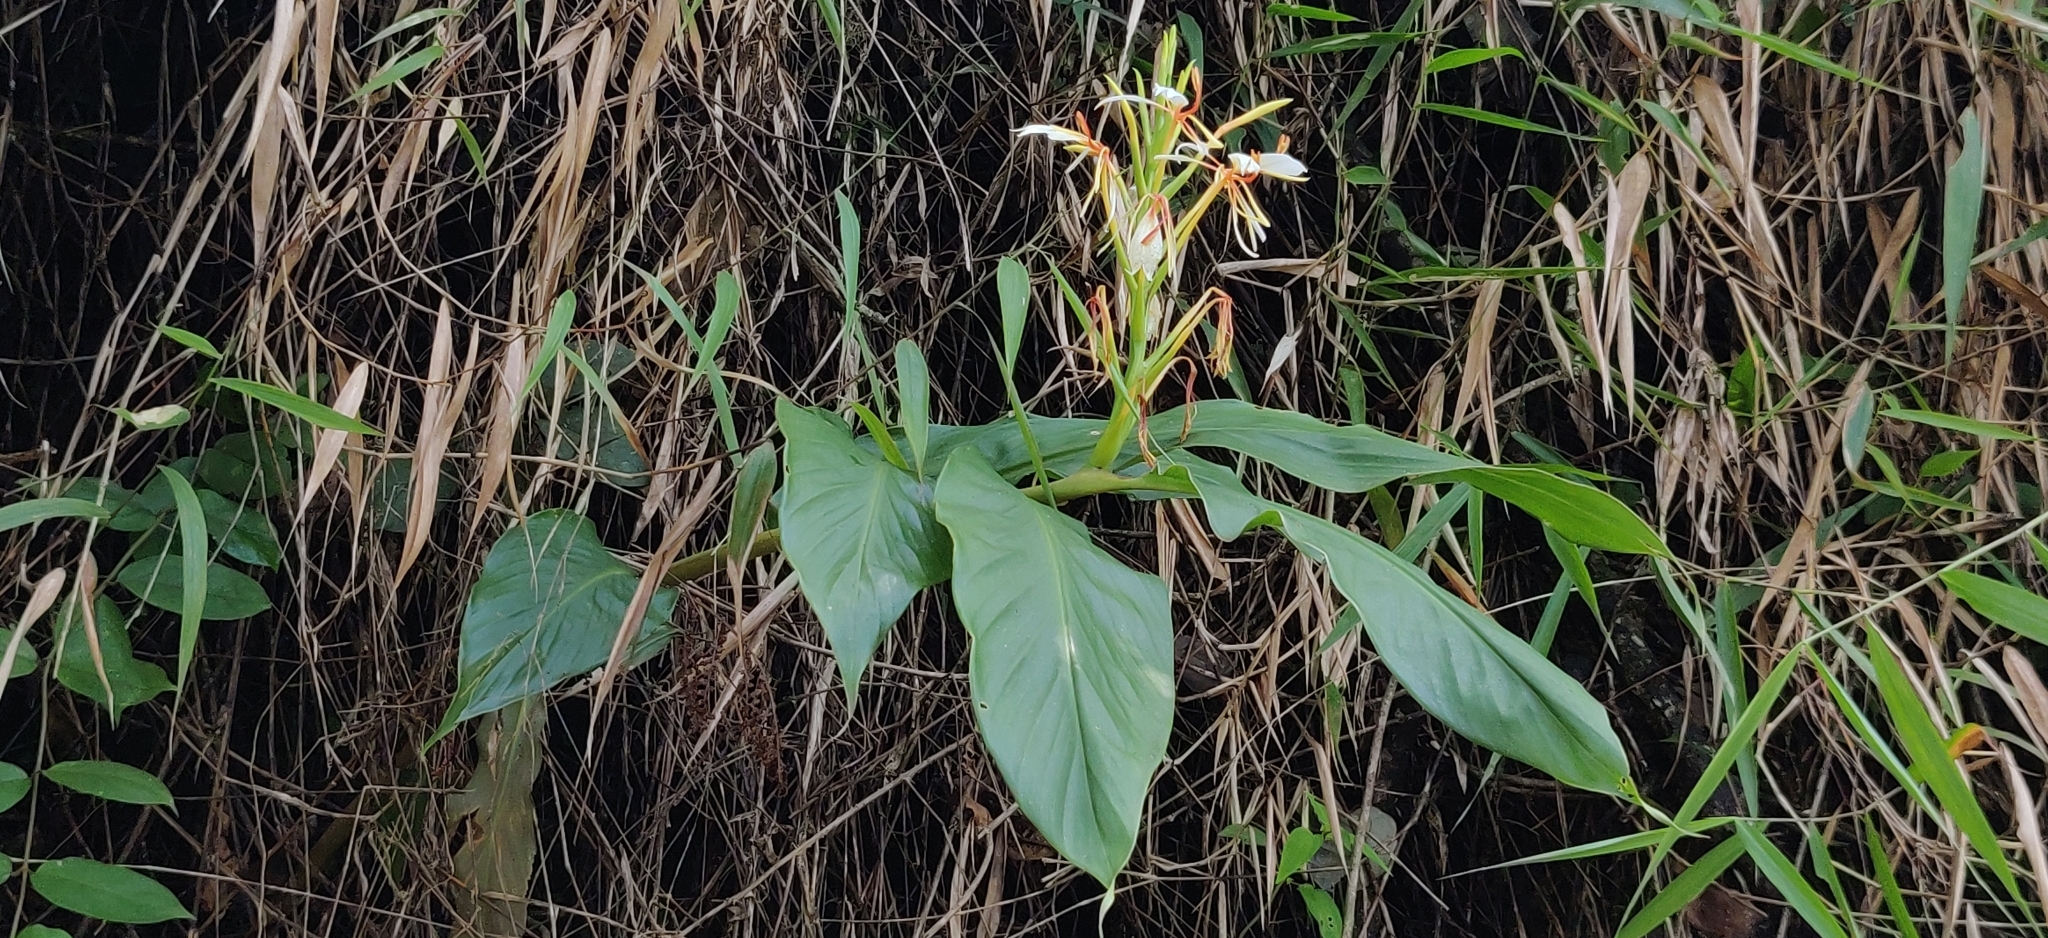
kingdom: Plantae
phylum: Tracheophyta
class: Liliopsida
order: Zingiberales
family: Zingiberaceae
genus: Hedychium
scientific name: Hedychium spicatum
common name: Spiked ginger-lily
